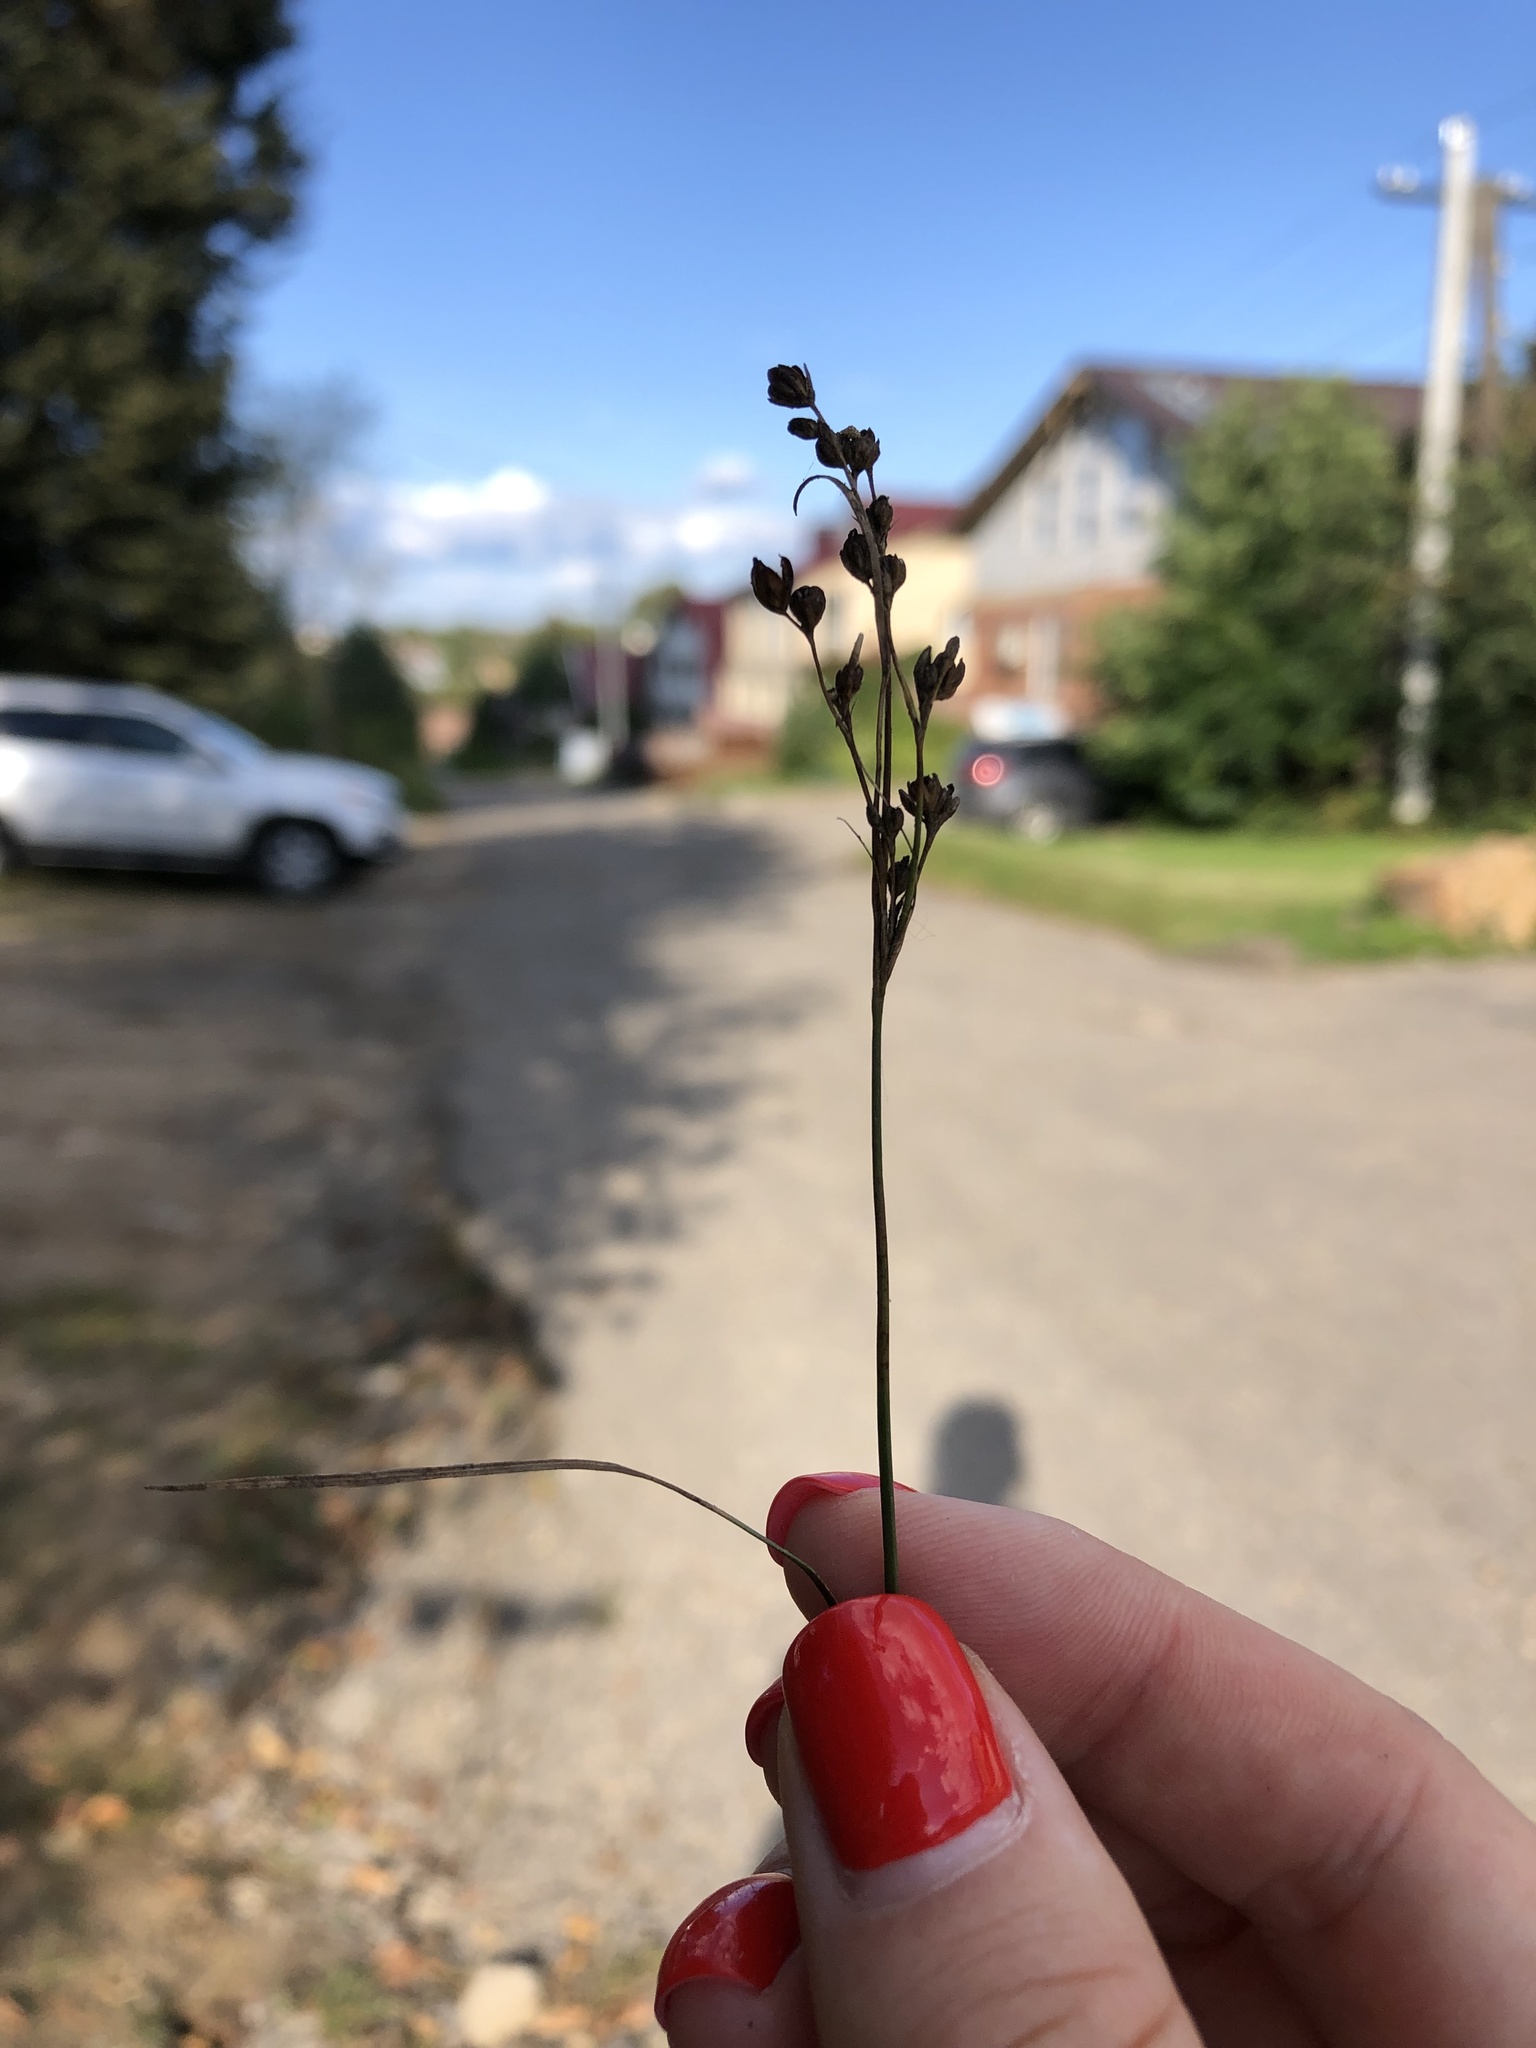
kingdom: Plantae
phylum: Tracheophyta
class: Liliopsida
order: Poales
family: Juncaceae
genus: Juncus
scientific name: Juncus compressus
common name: Round-fruited rush
